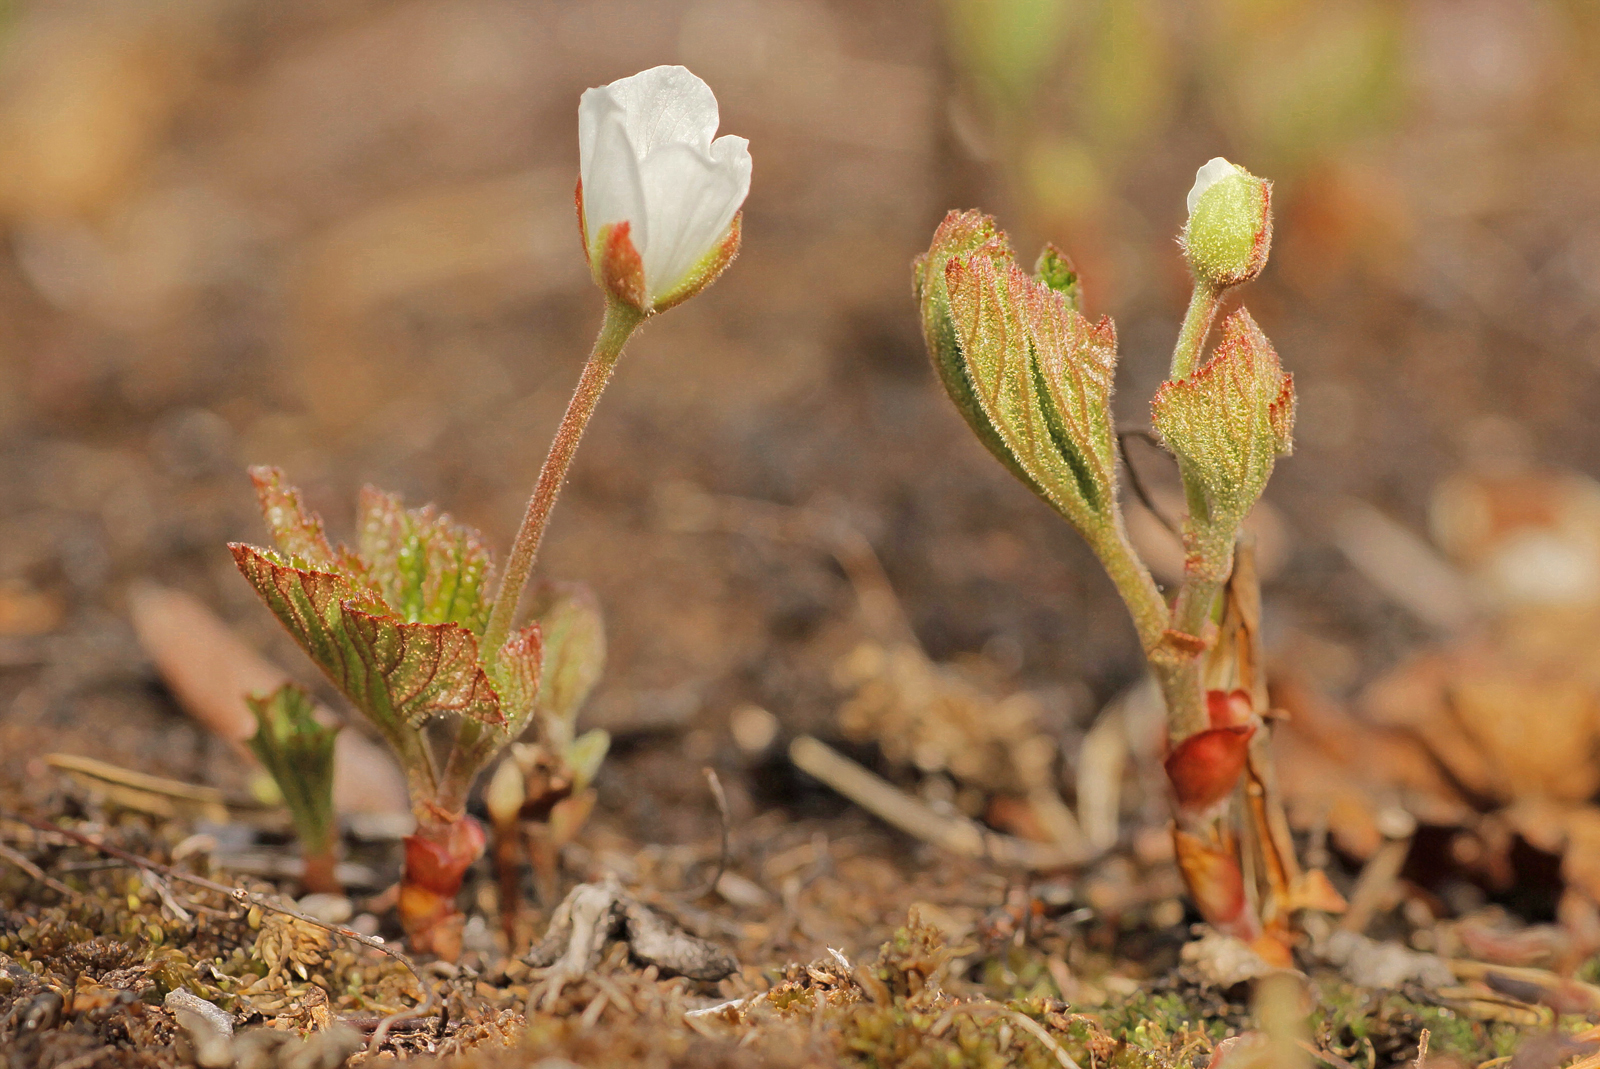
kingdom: Plantae
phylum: Tracheophyta
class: Magnoliopsida
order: Rosales
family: Rosaceae
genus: Rubus
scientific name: Rubus chamaemorus
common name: Cloudberry
